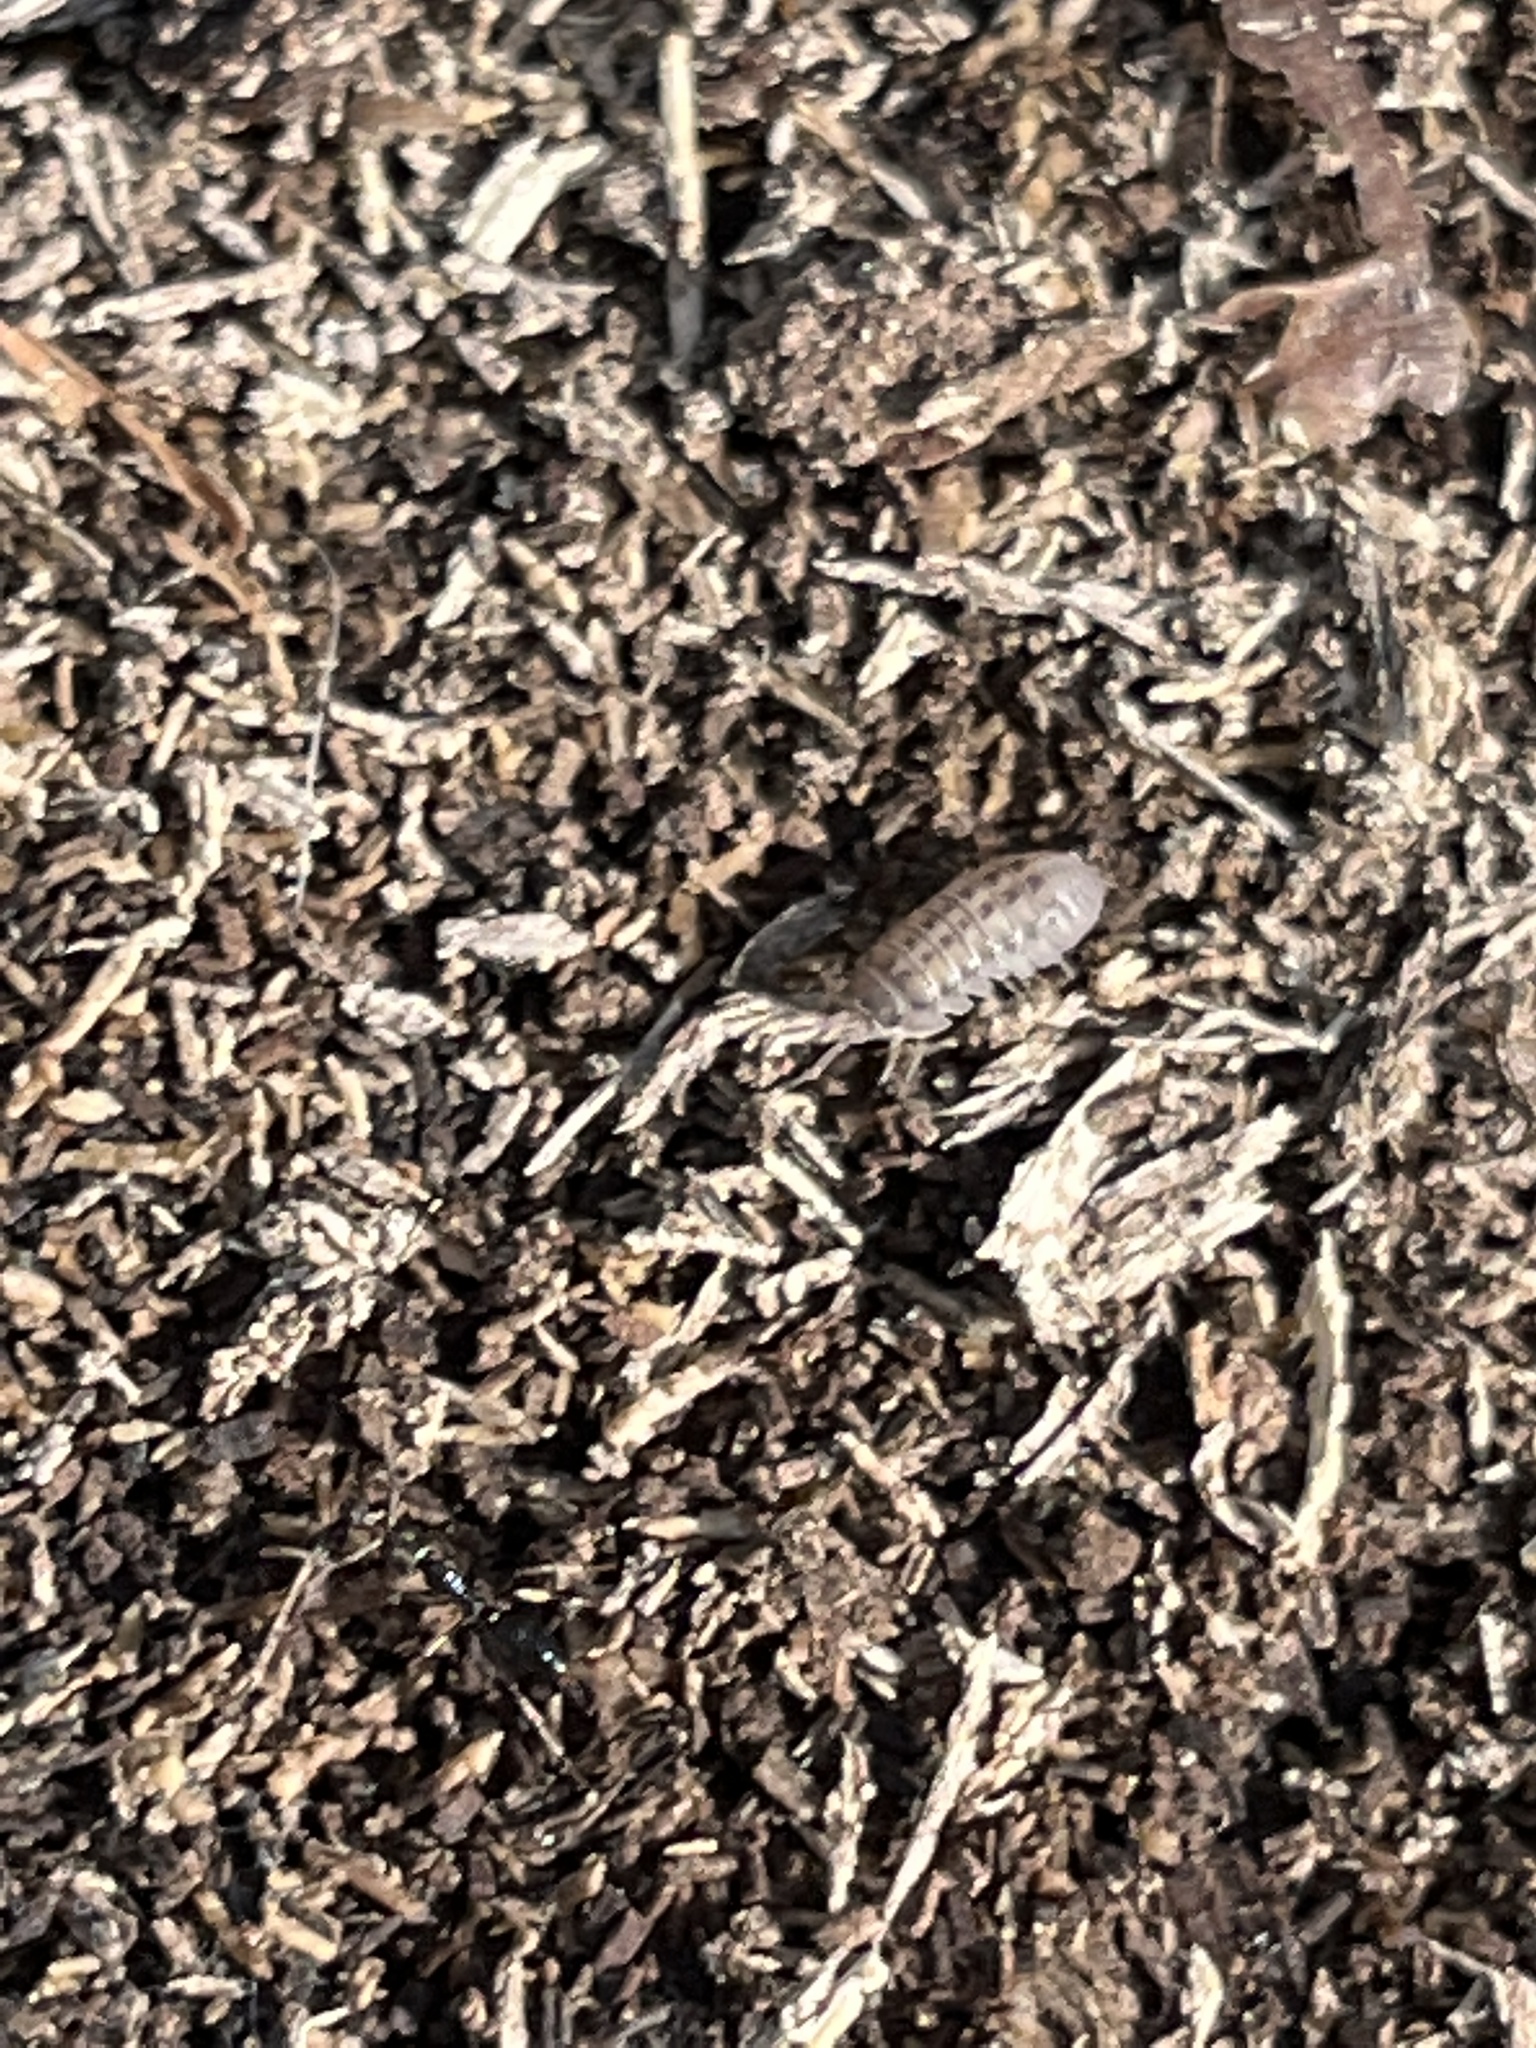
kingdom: Animalia
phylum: Arthropoda
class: Malacostraca
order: Isopoda
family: Armadillidiidae
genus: Armadillidium
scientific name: Armadillidium nasatum
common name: Isopod
